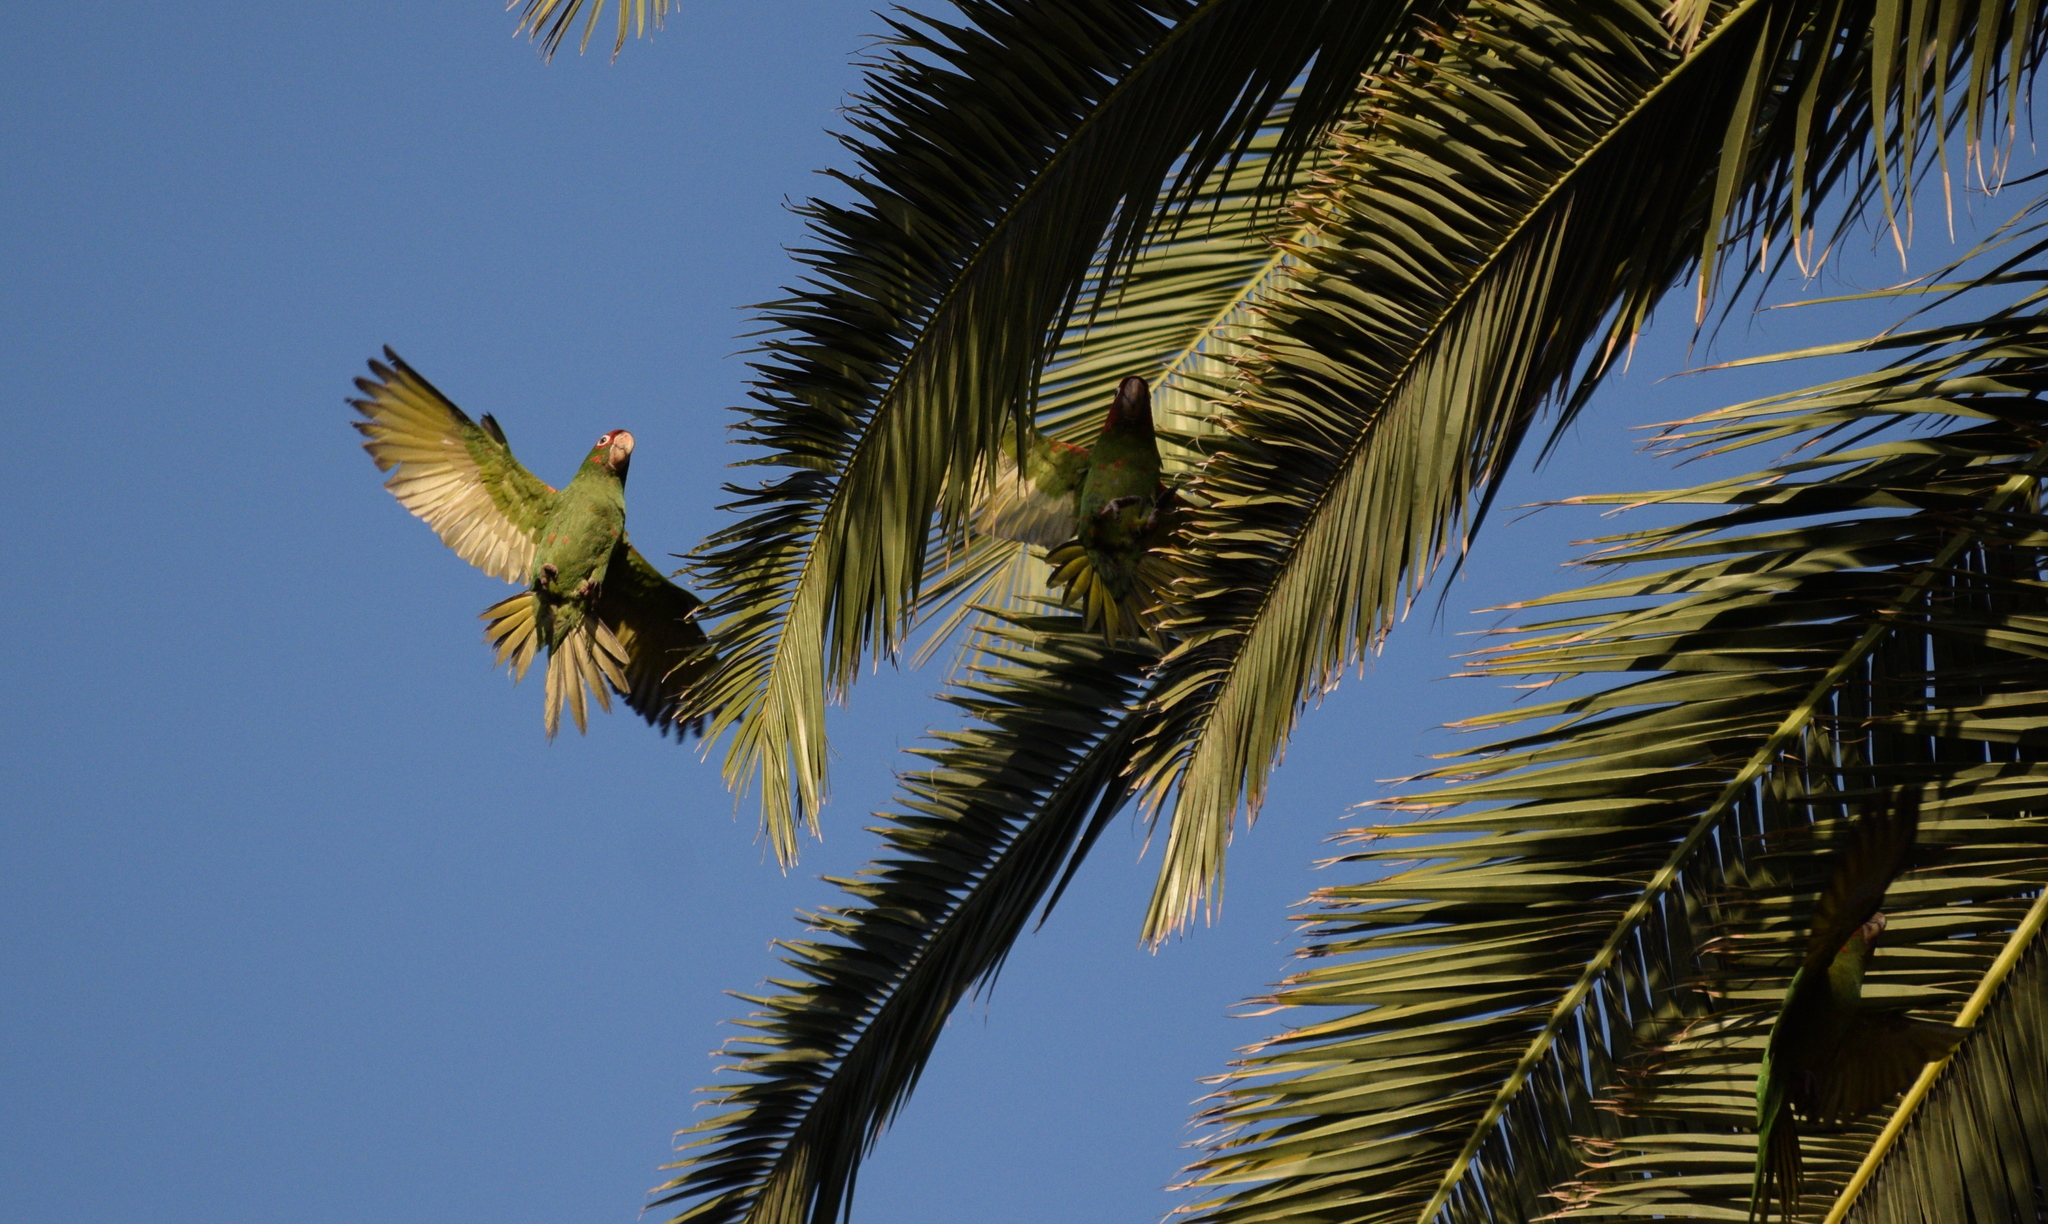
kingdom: Animalia
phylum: Chordata
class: Aves
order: Psittaciformes
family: Psittacidae
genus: Aratinga
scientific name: Aratinga mitrata
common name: Mitred parakeet
